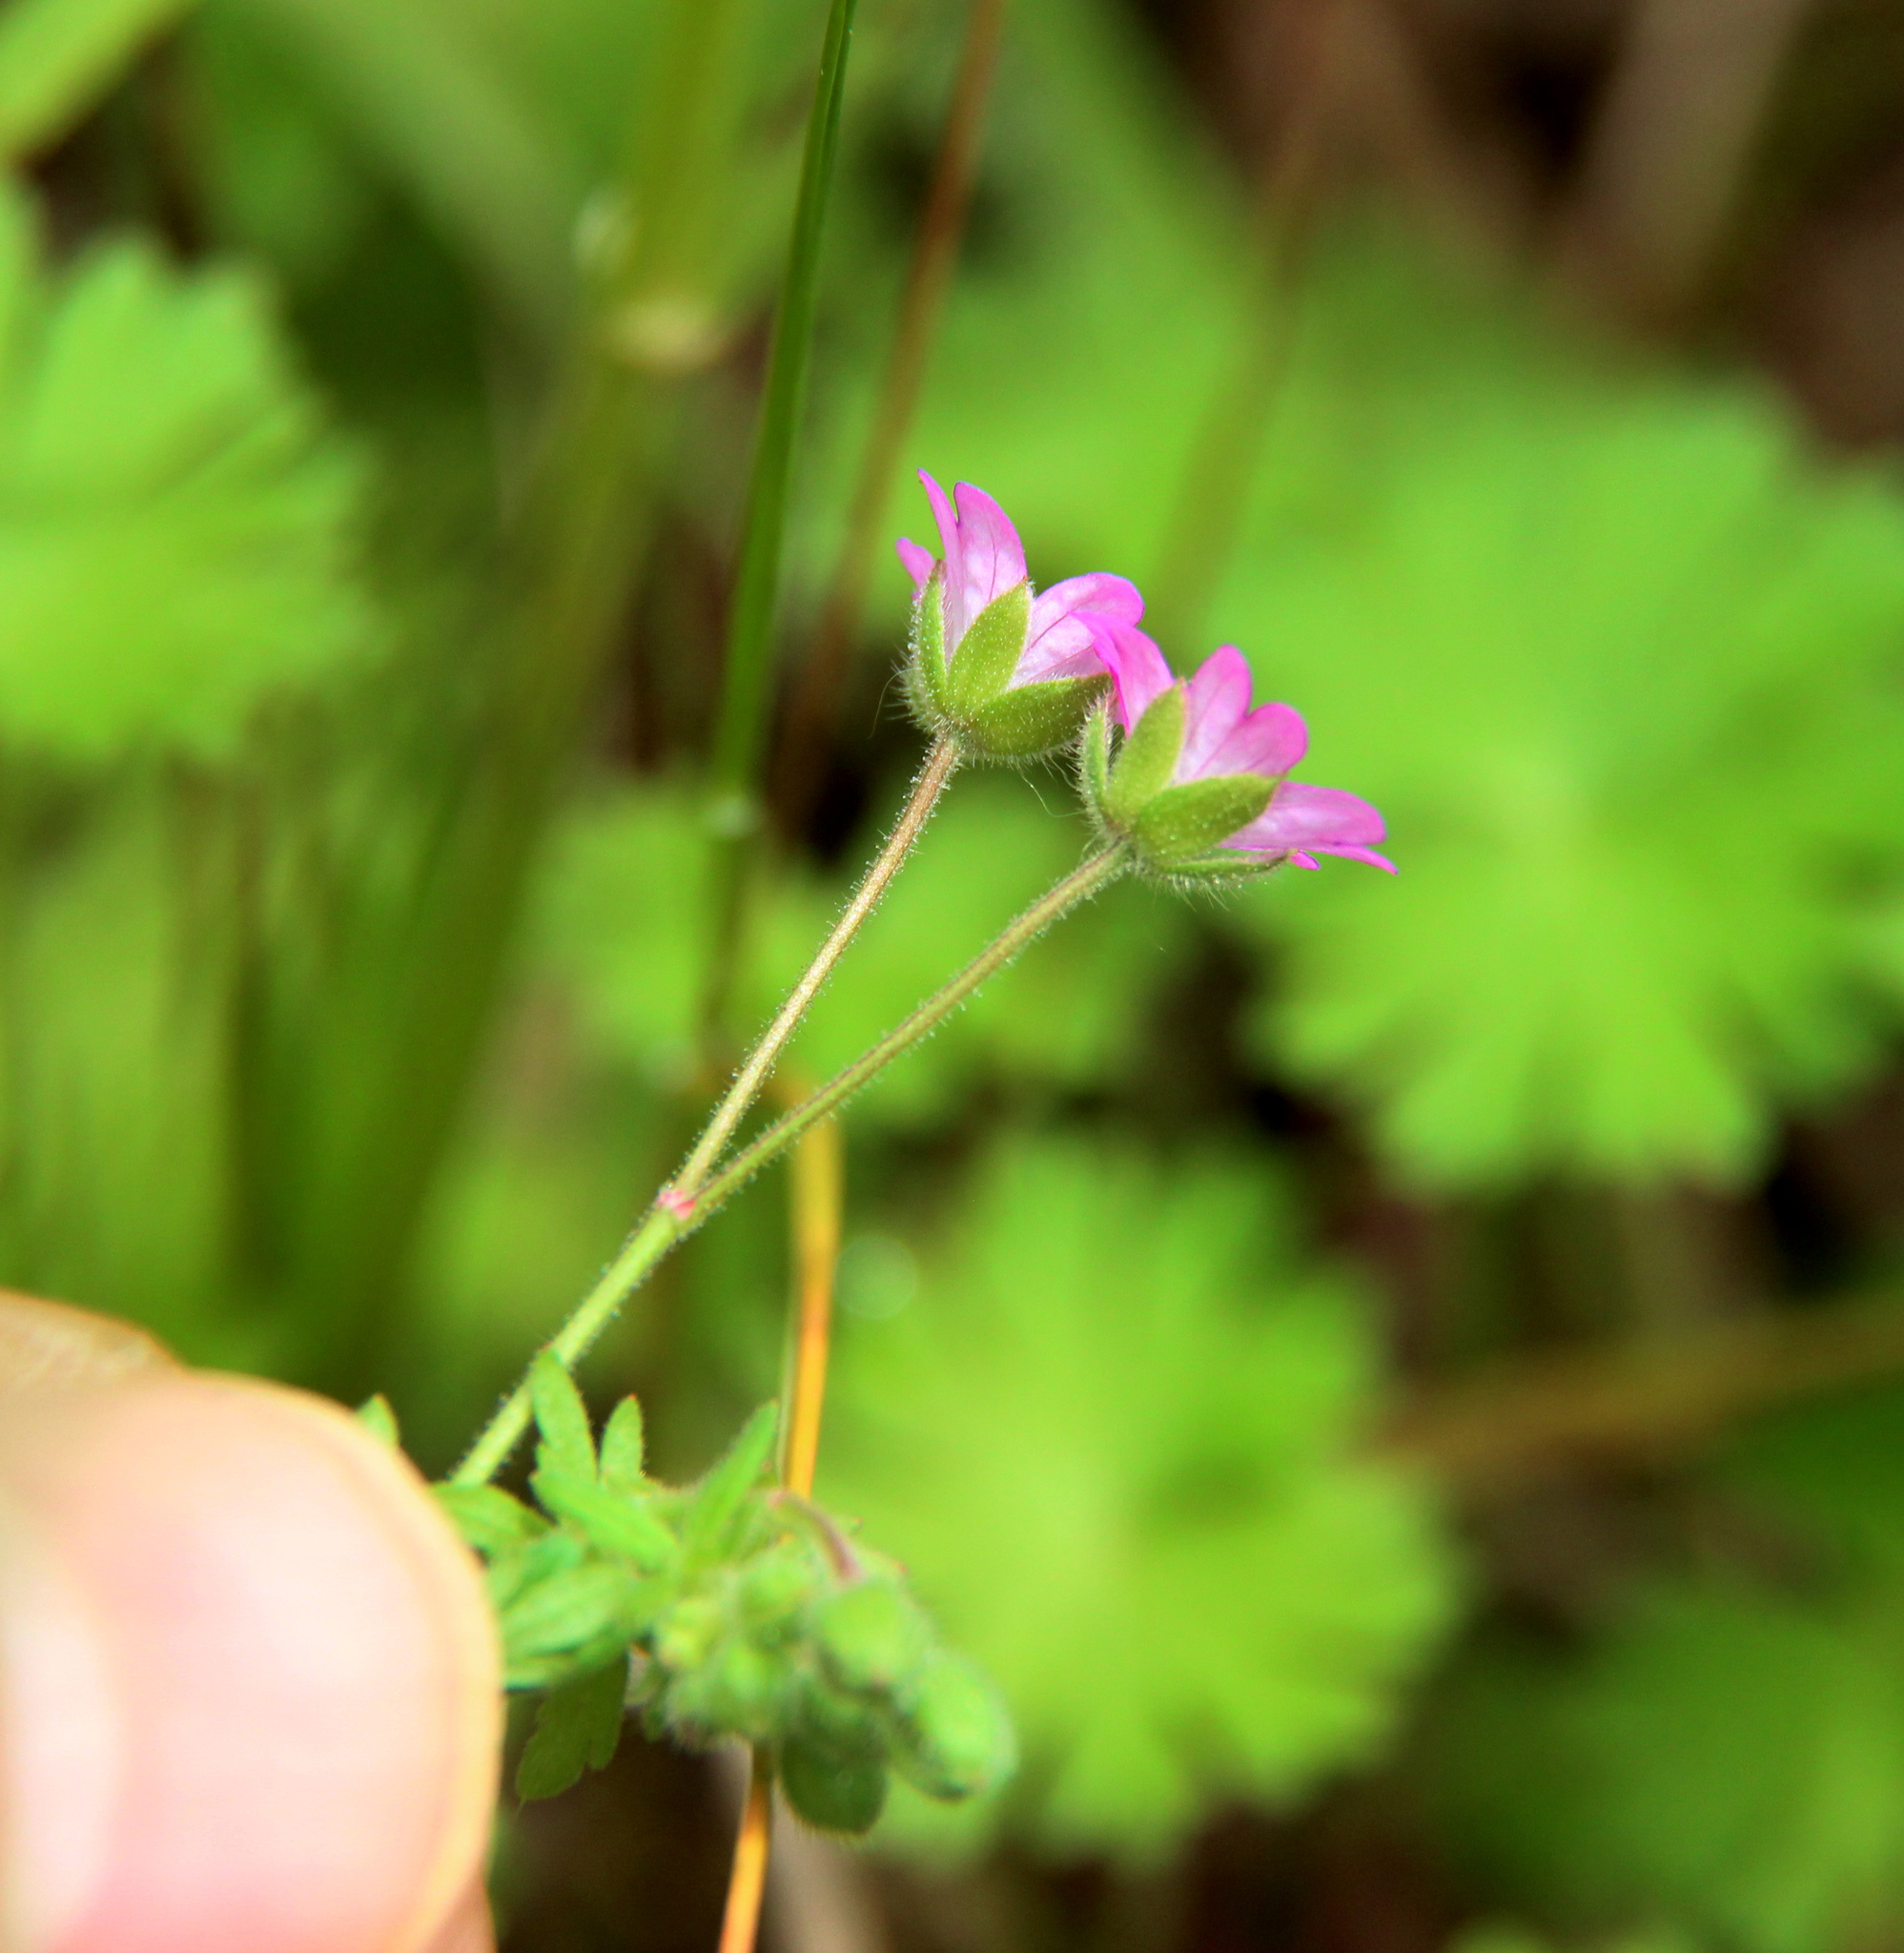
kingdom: Plantae
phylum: Tracheophyta
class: Magnoliopsida
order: Geraniales
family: Geraniaceae
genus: Geranium
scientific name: Geranium molle
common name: Dove's-foot crane's-bill
